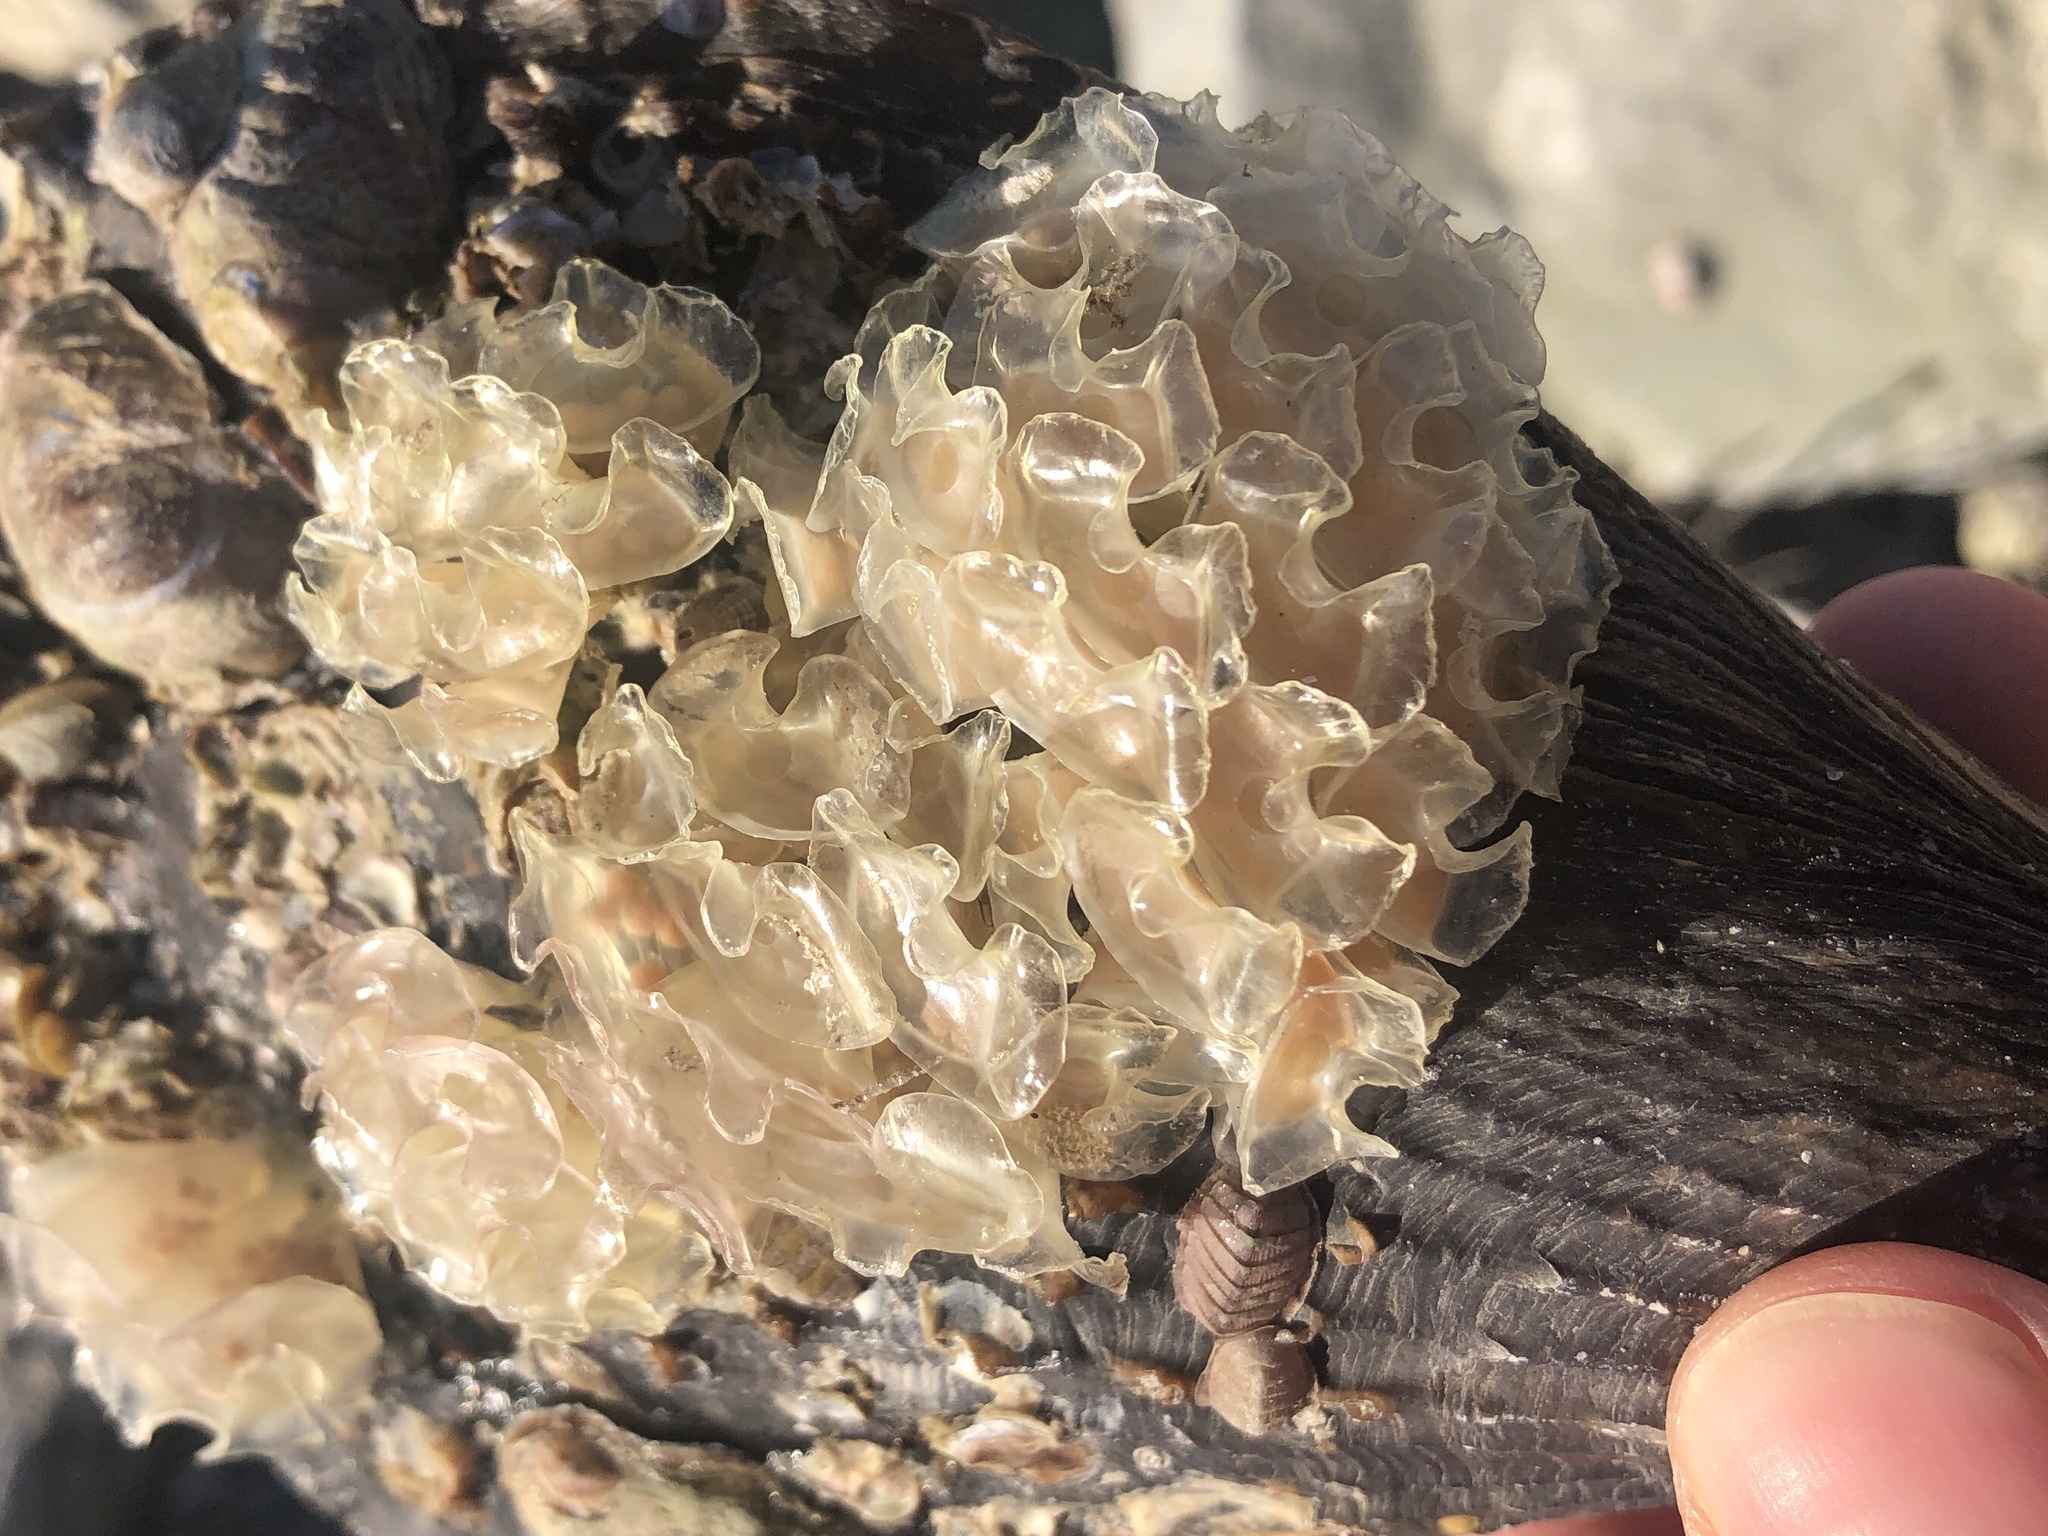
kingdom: Animalia
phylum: Mollusca
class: Gastropoda
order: Neogastropoda
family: Fasciolariidae
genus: Cinctura
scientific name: Cinctura hunteria
